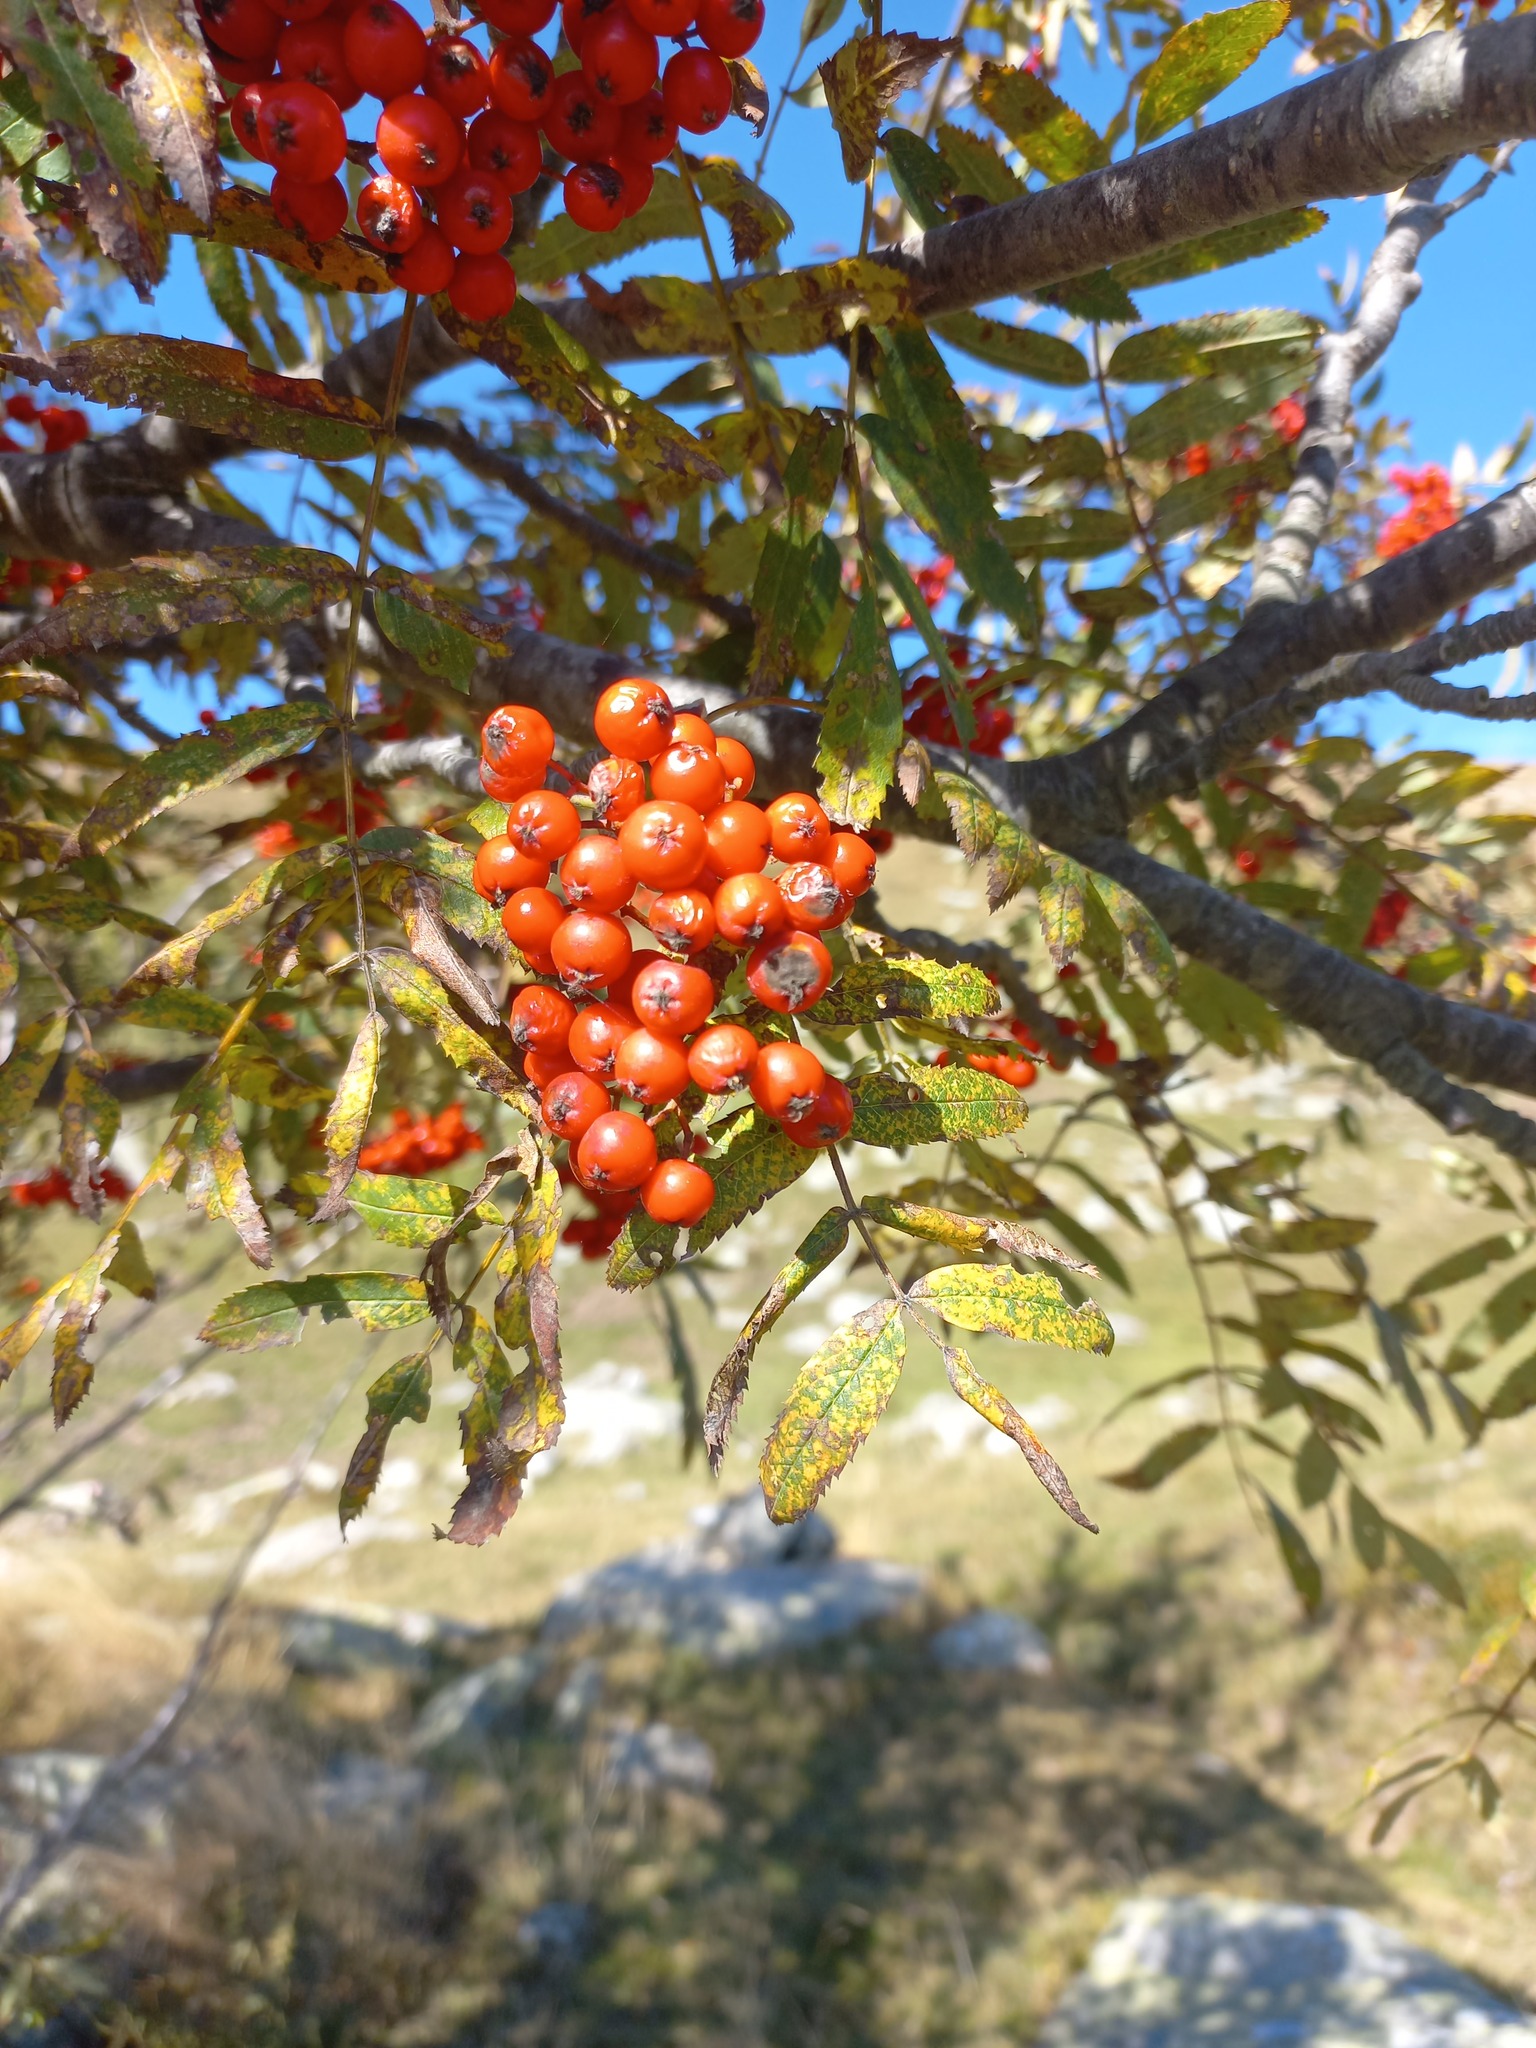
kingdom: Plantae
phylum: Tracheophyta
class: Magnoliopsida
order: Rosales
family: Rosaceae
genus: Sorbus
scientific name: Sorbus aucuparia
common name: Rowan
